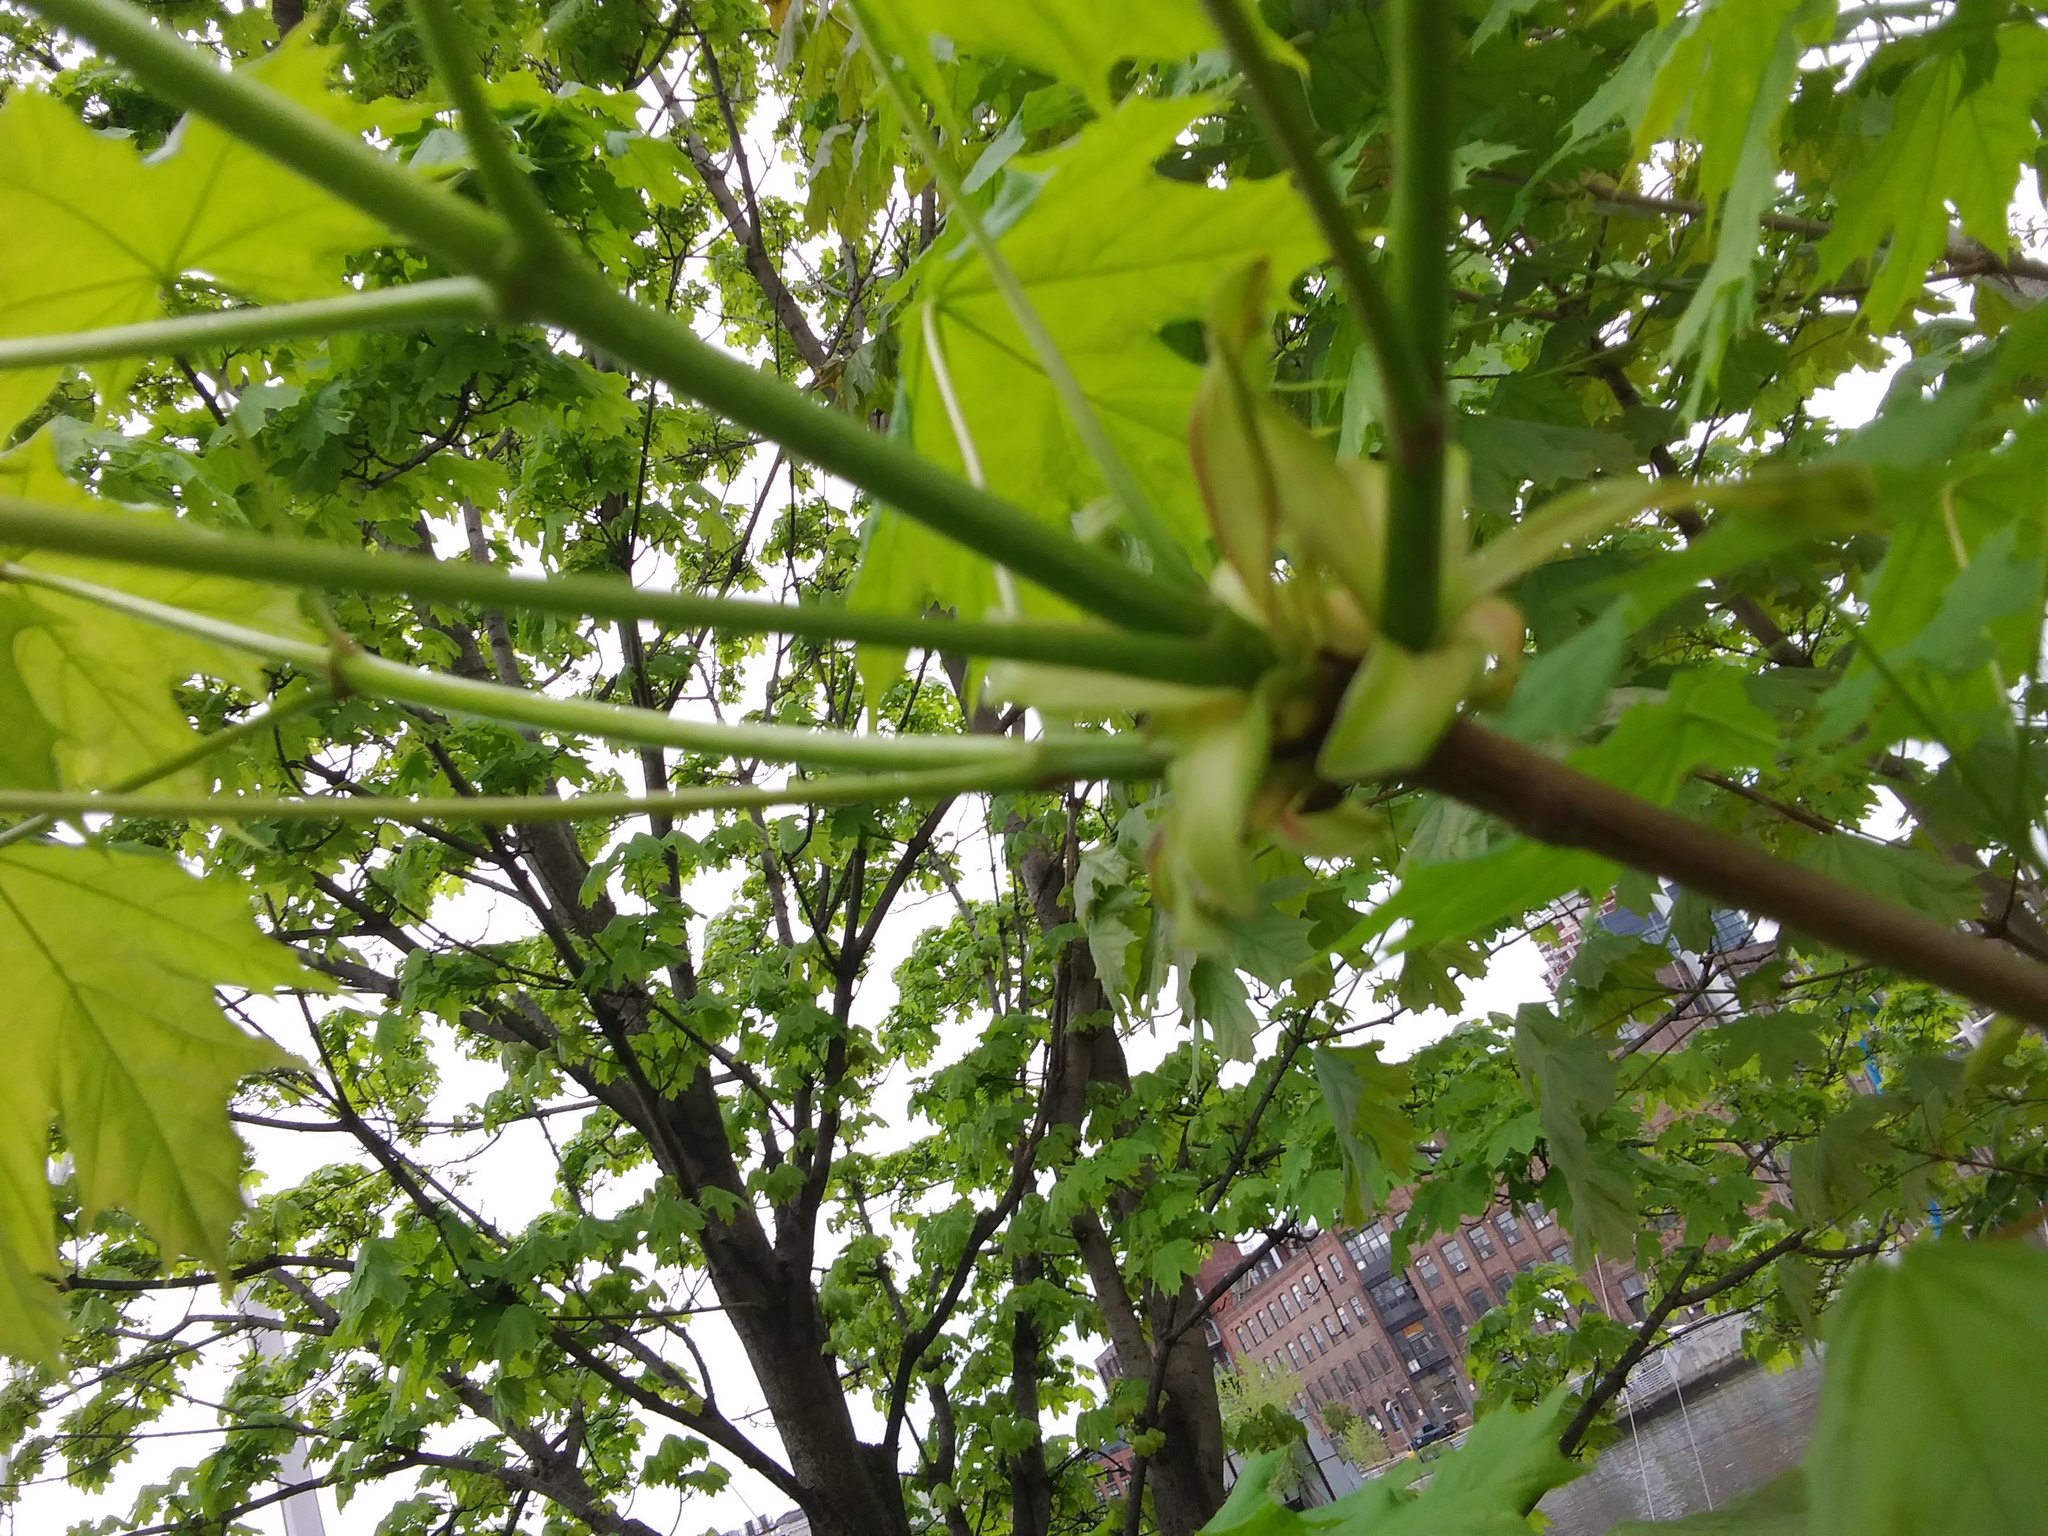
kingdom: Plantae
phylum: Tracheophyta
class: Magnoliopsida
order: Sapindales
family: Sapindaceae
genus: Acer
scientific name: Acer platanoides
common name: Norway maple
